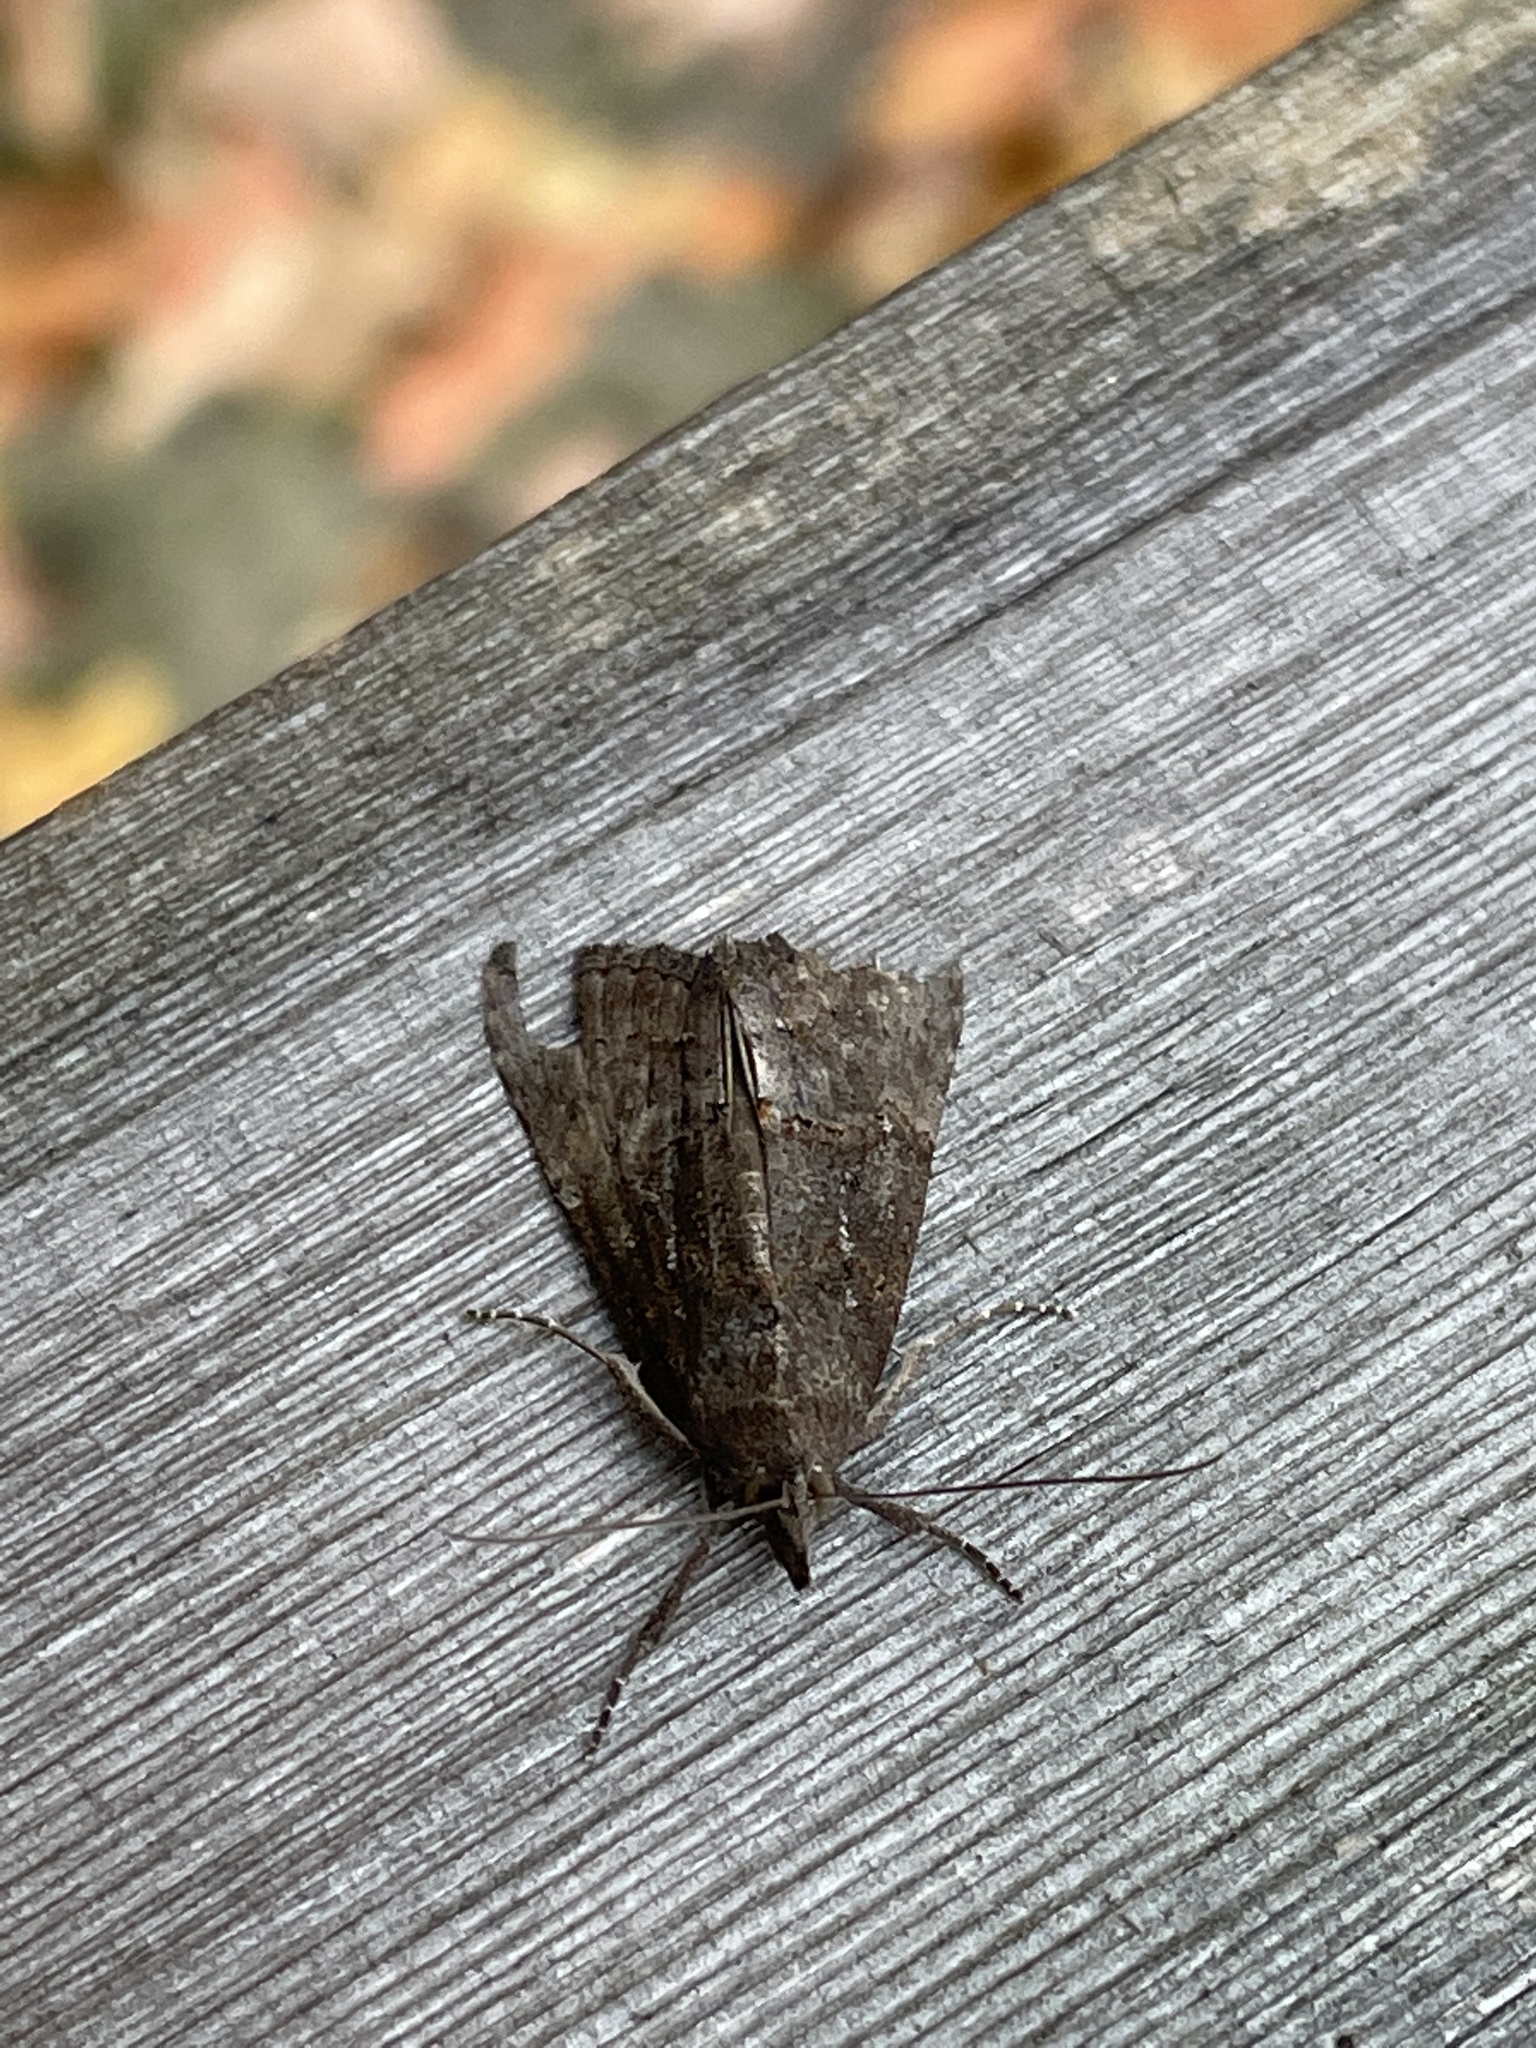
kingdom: Animalia
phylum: Arthropoda
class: Insecta
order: Lepidoptera
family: Erebidae
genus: Hypena
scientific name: Hypena scabra
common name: Green cloverworm
